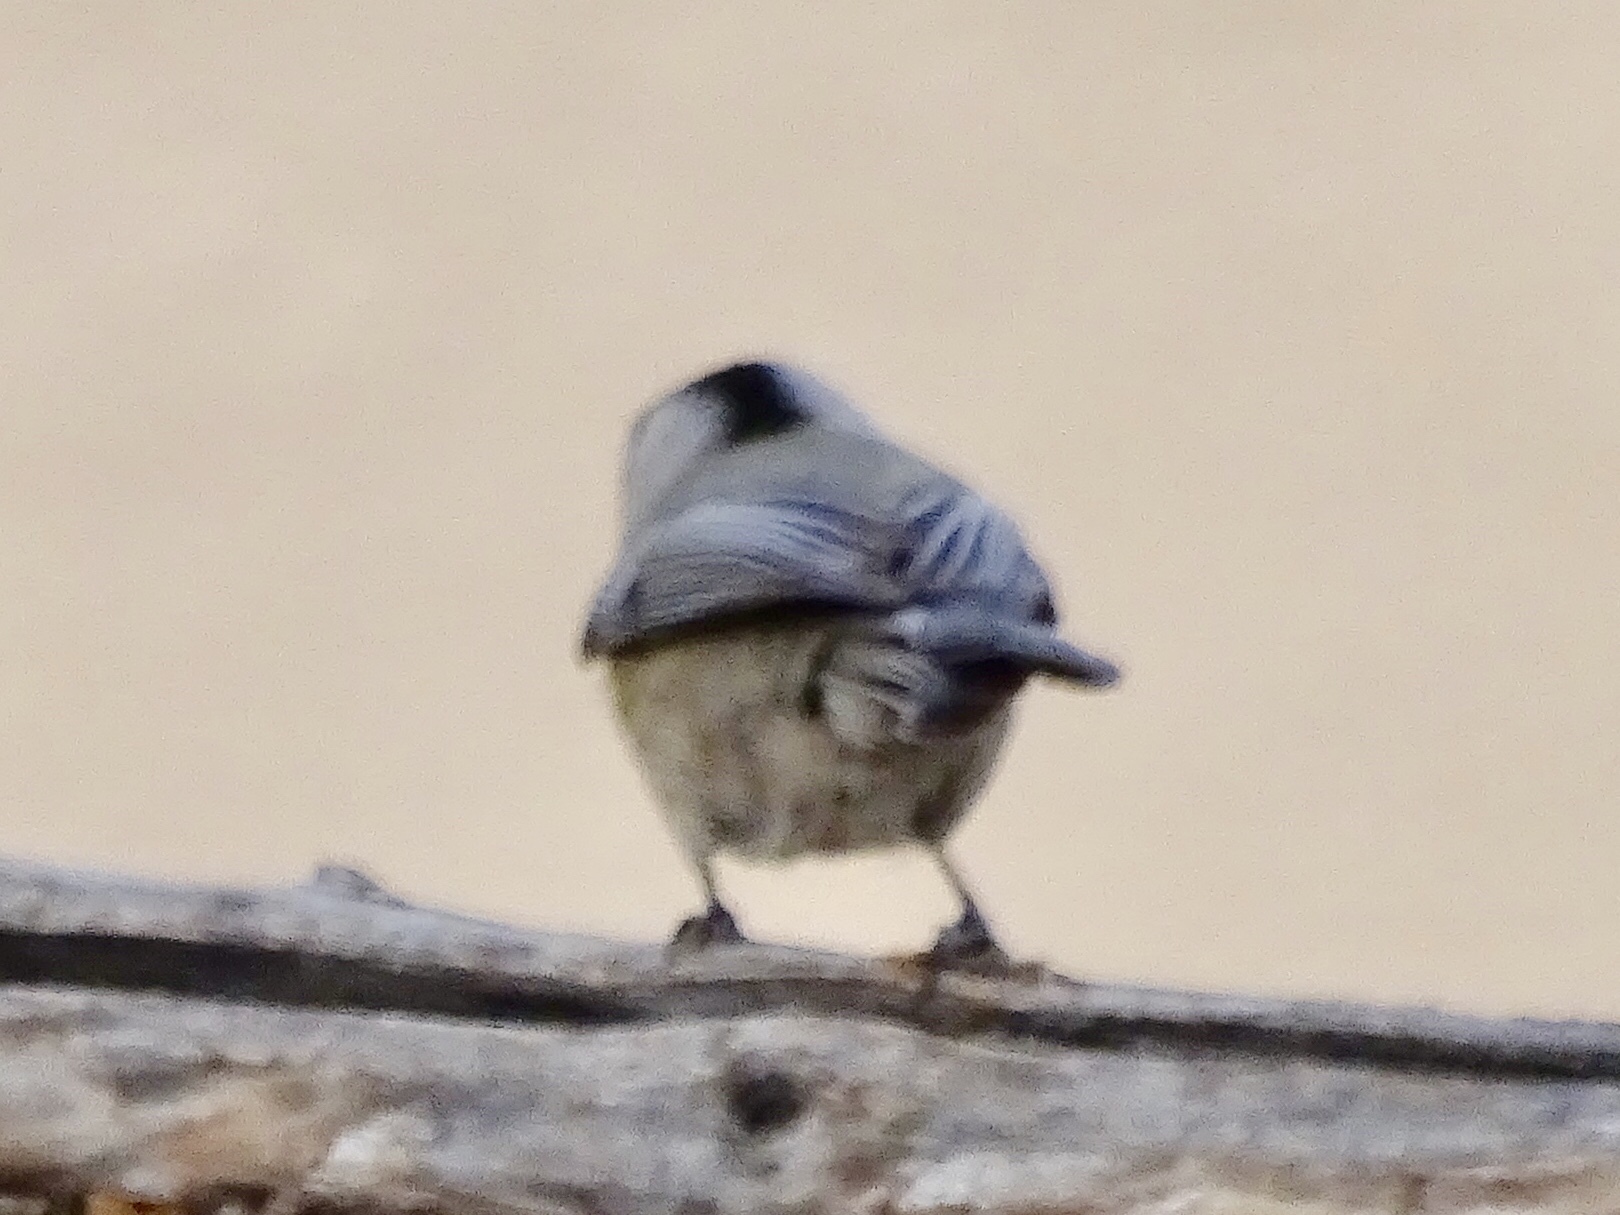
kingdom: Animalia
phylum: Chordata
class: Aves
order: Passeriformes
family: Paridae
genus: Poecile
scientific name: Poecile gambeli
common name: Mountain chickadee
